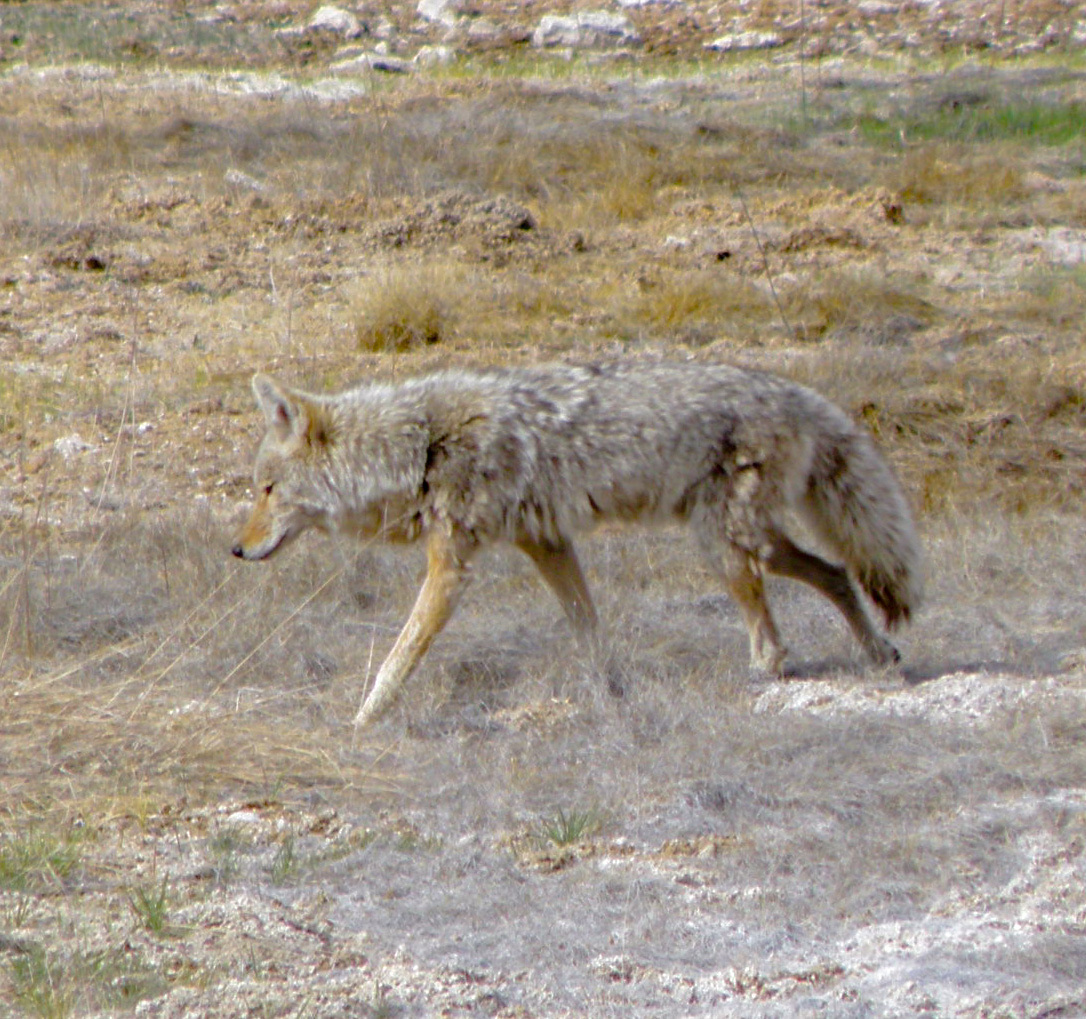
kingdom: Animalia
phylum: Chordata
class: Mammalia
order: Carnivora
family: Canidae
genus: Canis
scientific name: Canis latrans
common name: Coyote
